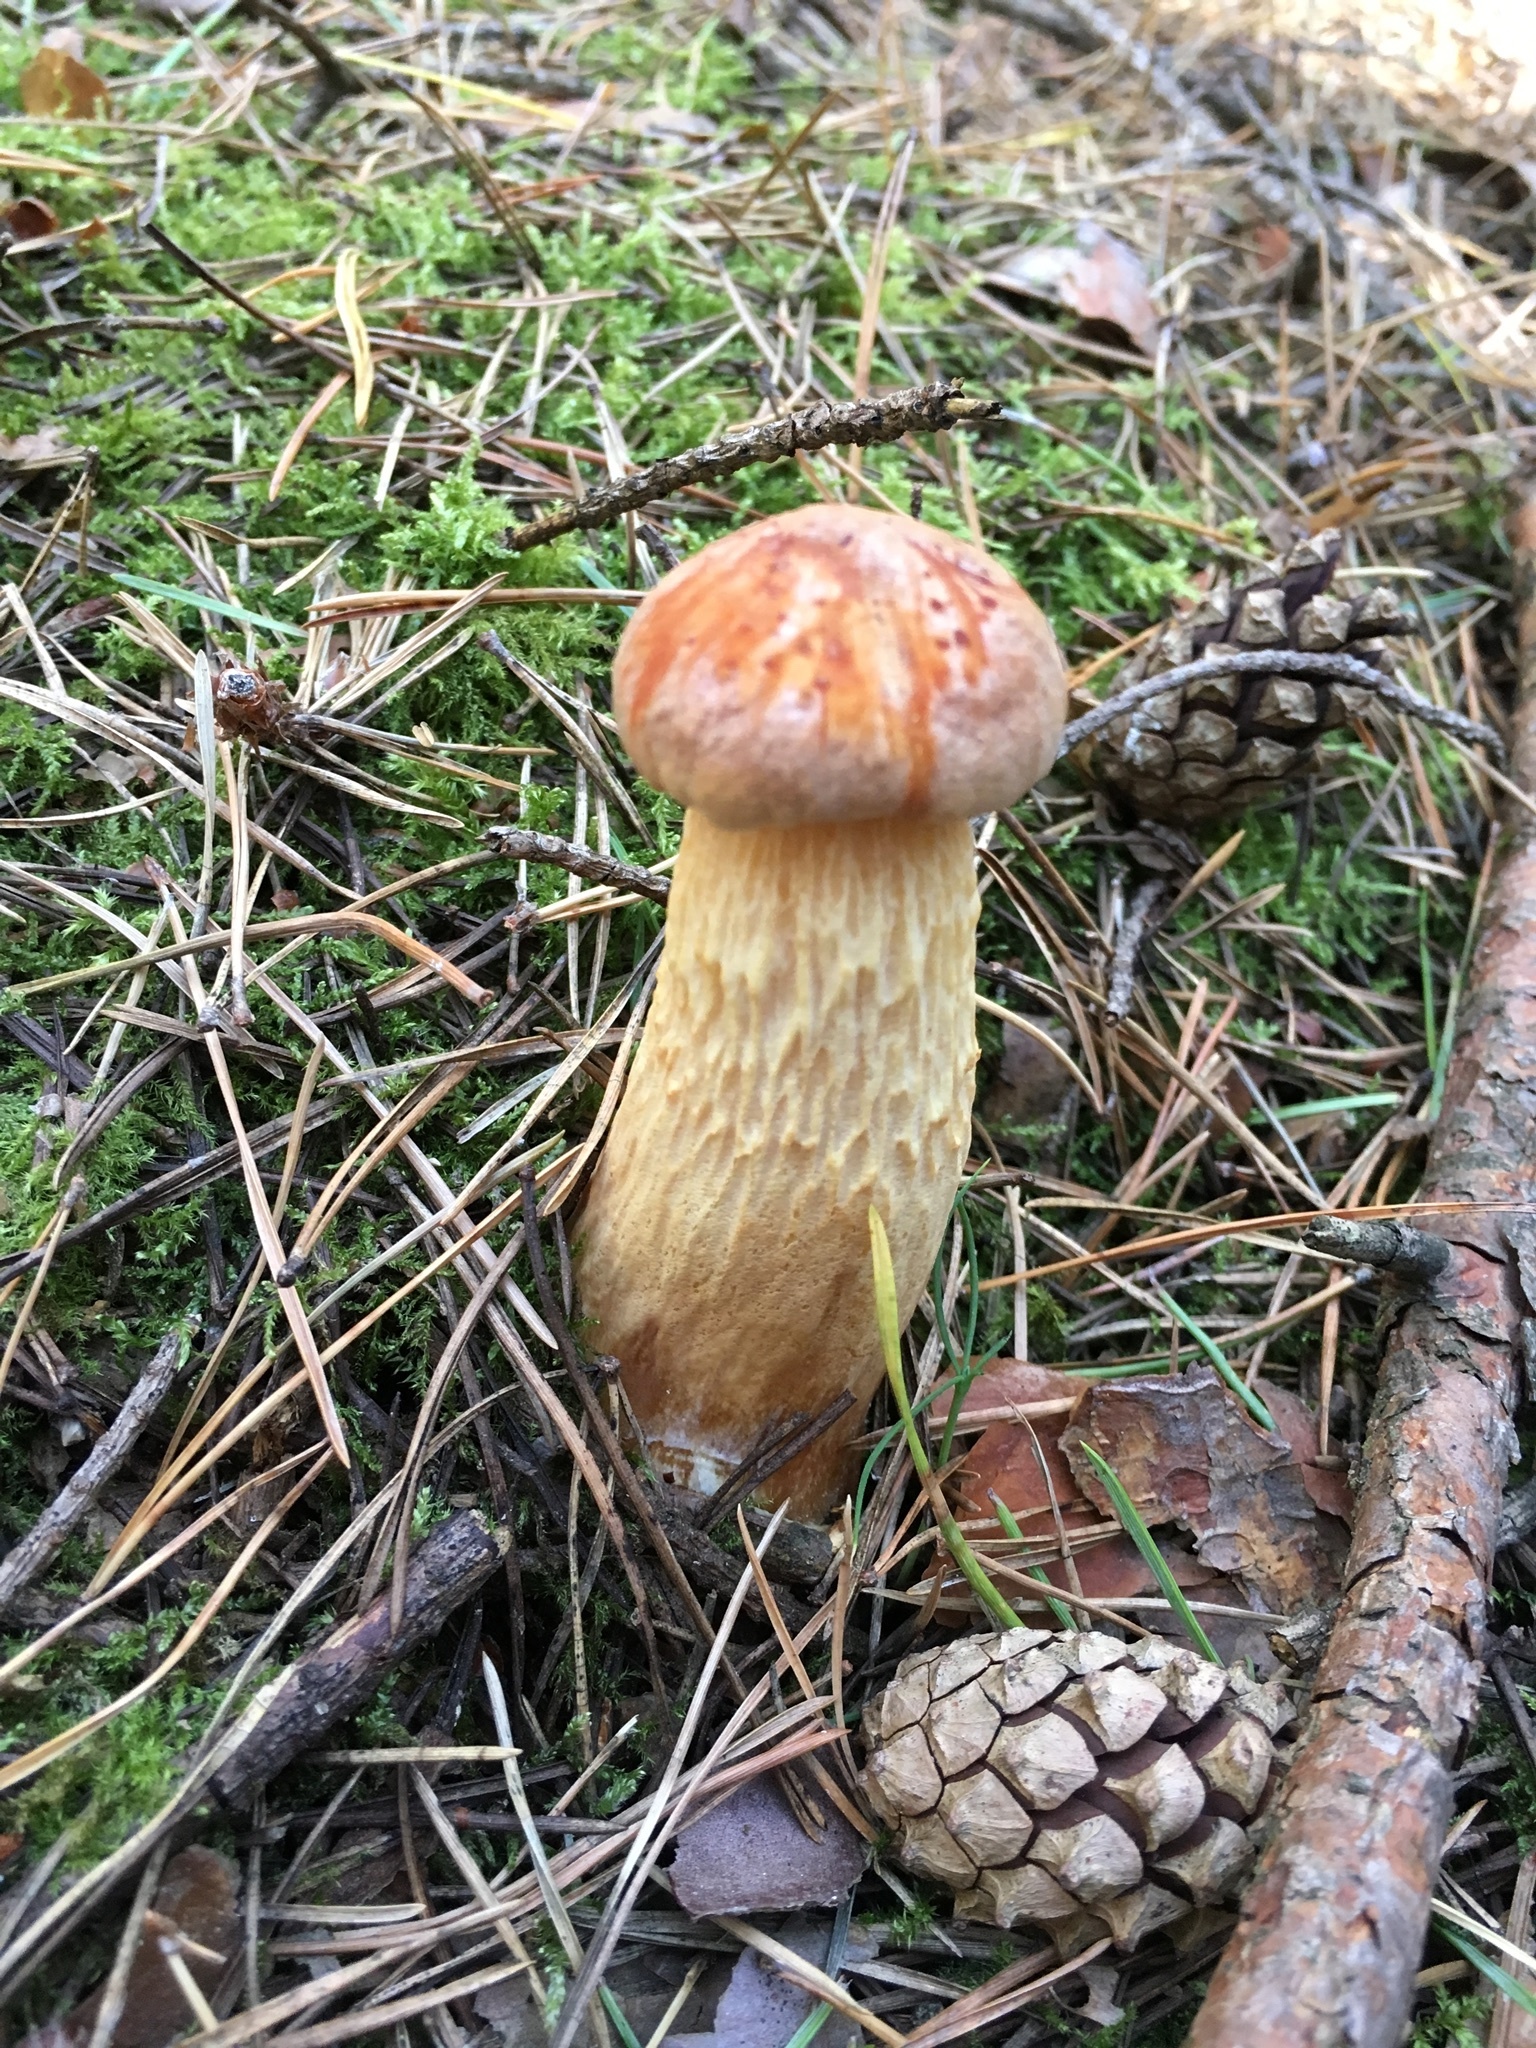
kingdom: Fungi
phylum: Basidiomycota
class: Agaricomycetes
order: Boletales
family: Boletaceae
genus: Aureoboletus
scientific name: Aureoboletus projectellus
